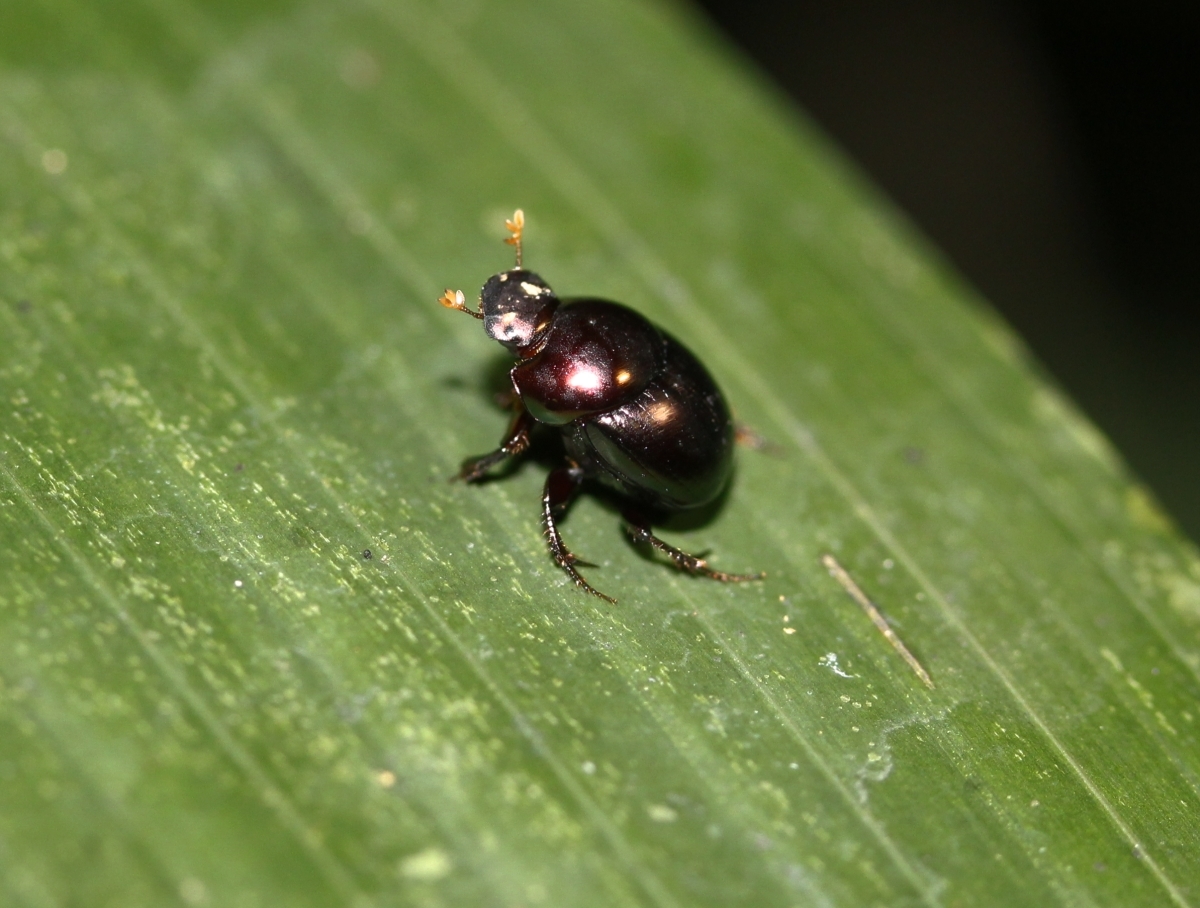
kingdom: Animalia
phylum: Arthropoda
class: Insecta
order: Coleoptera
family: Scarabaeidae
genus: Canthidium
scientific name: Canthidium
